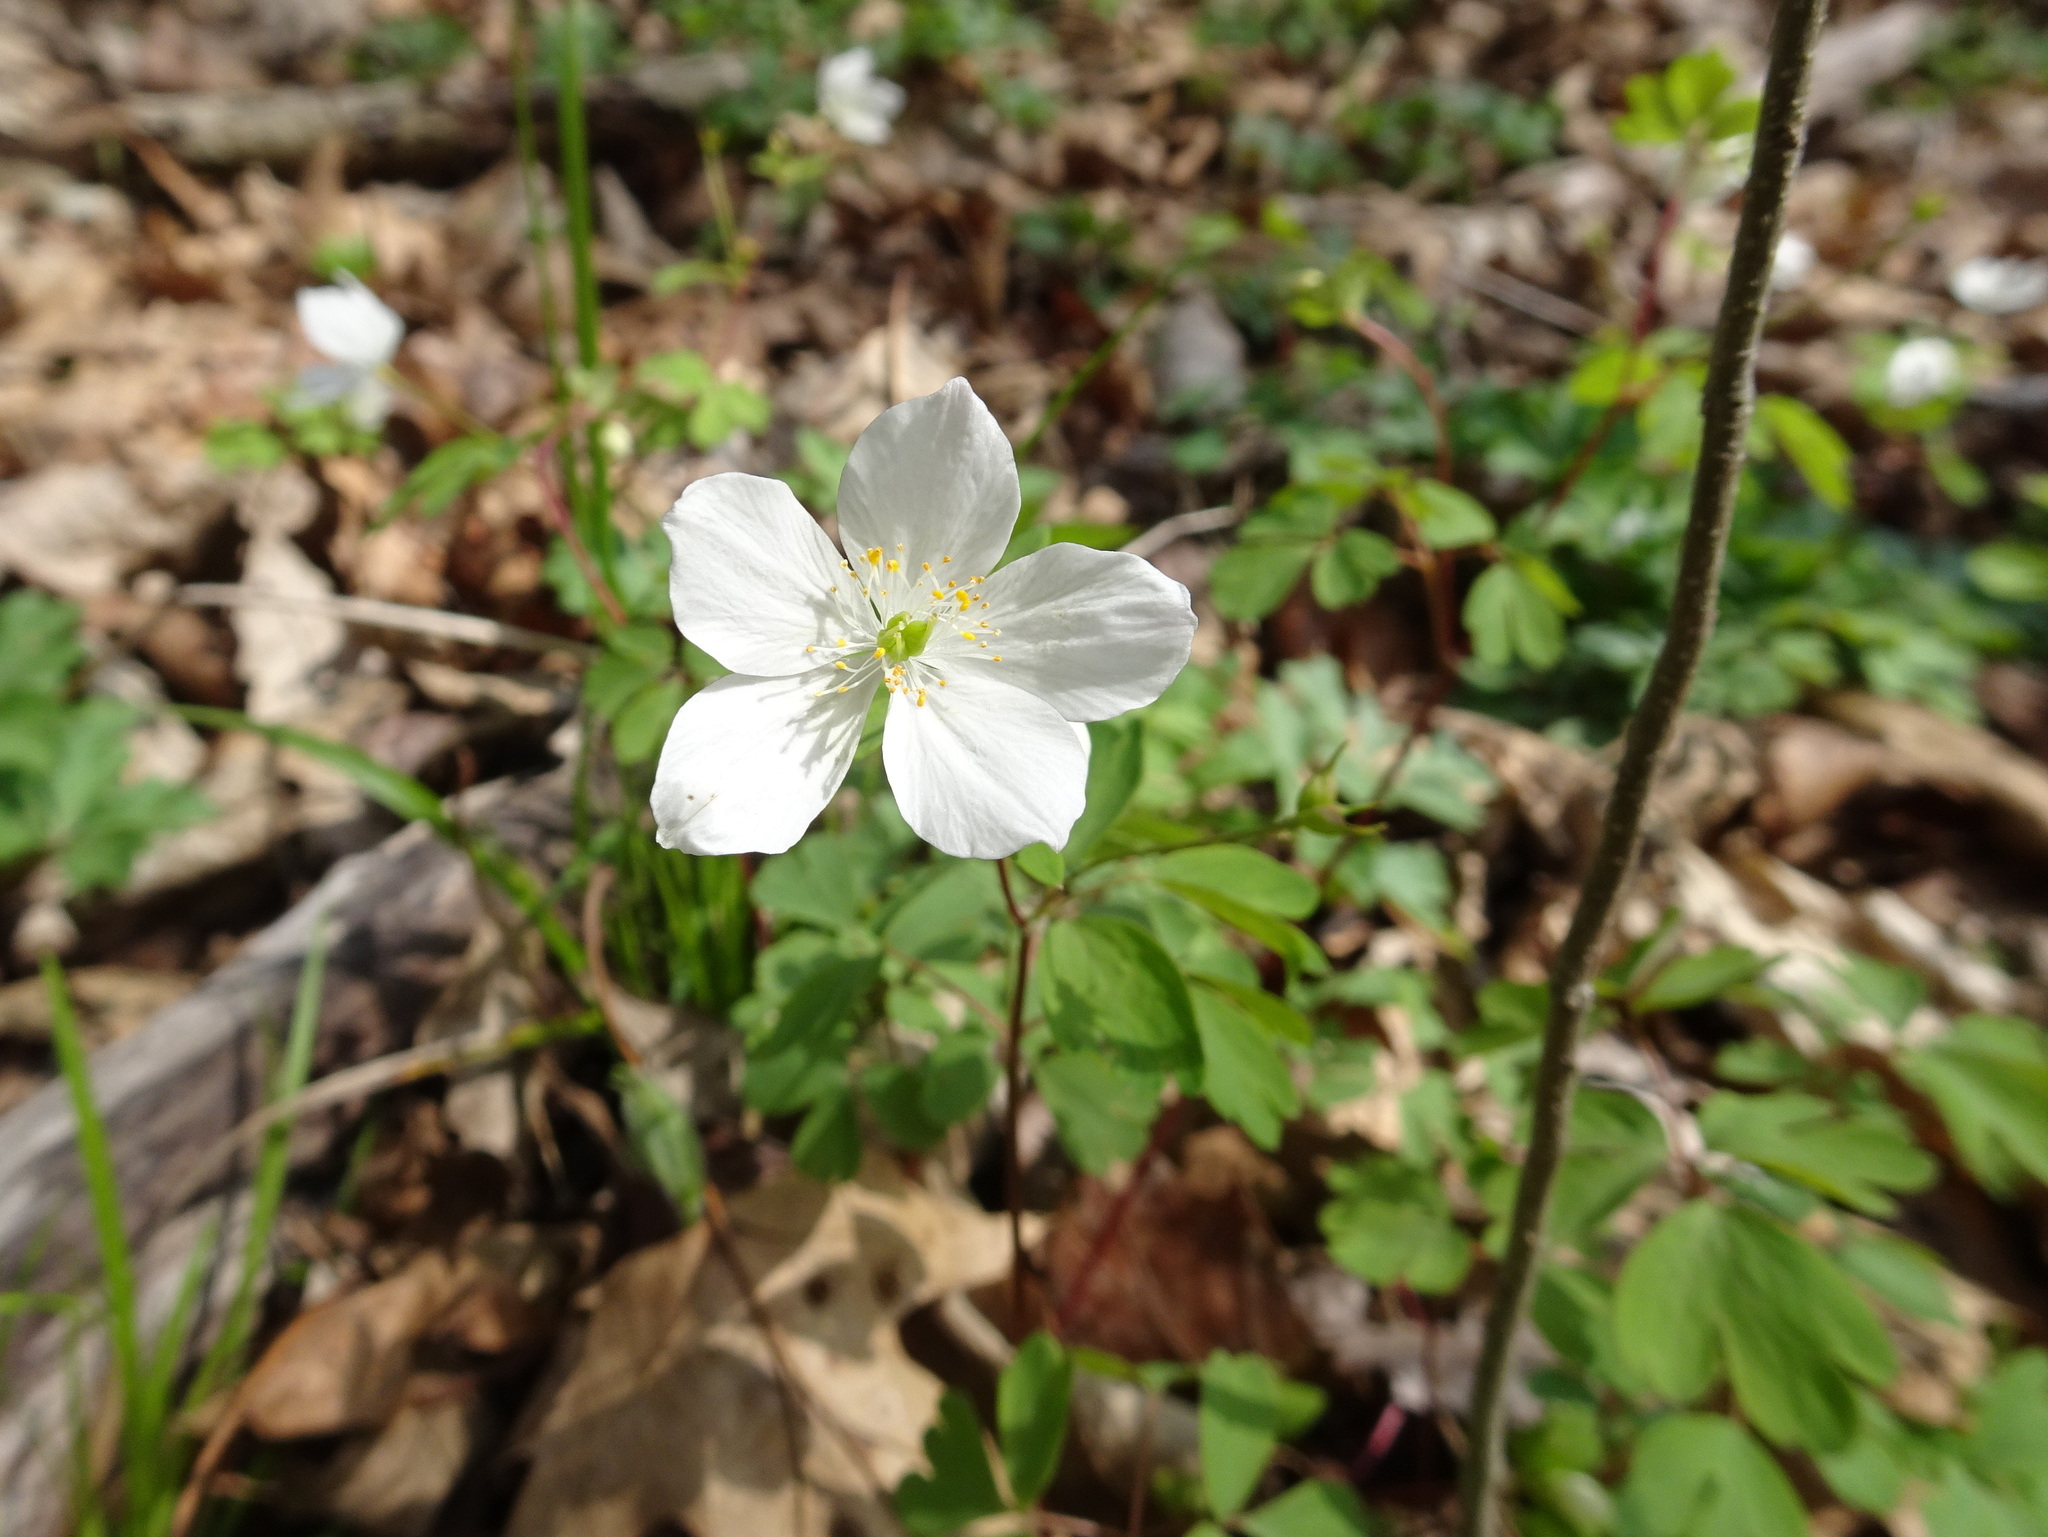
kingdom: Plantae
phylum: Tracheophyta
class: Magnoliopsida
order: Ranunculales
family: Ranunculaceae
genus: Enemion
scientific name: Enemion biternatum
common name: Eastern false rue-anemone
